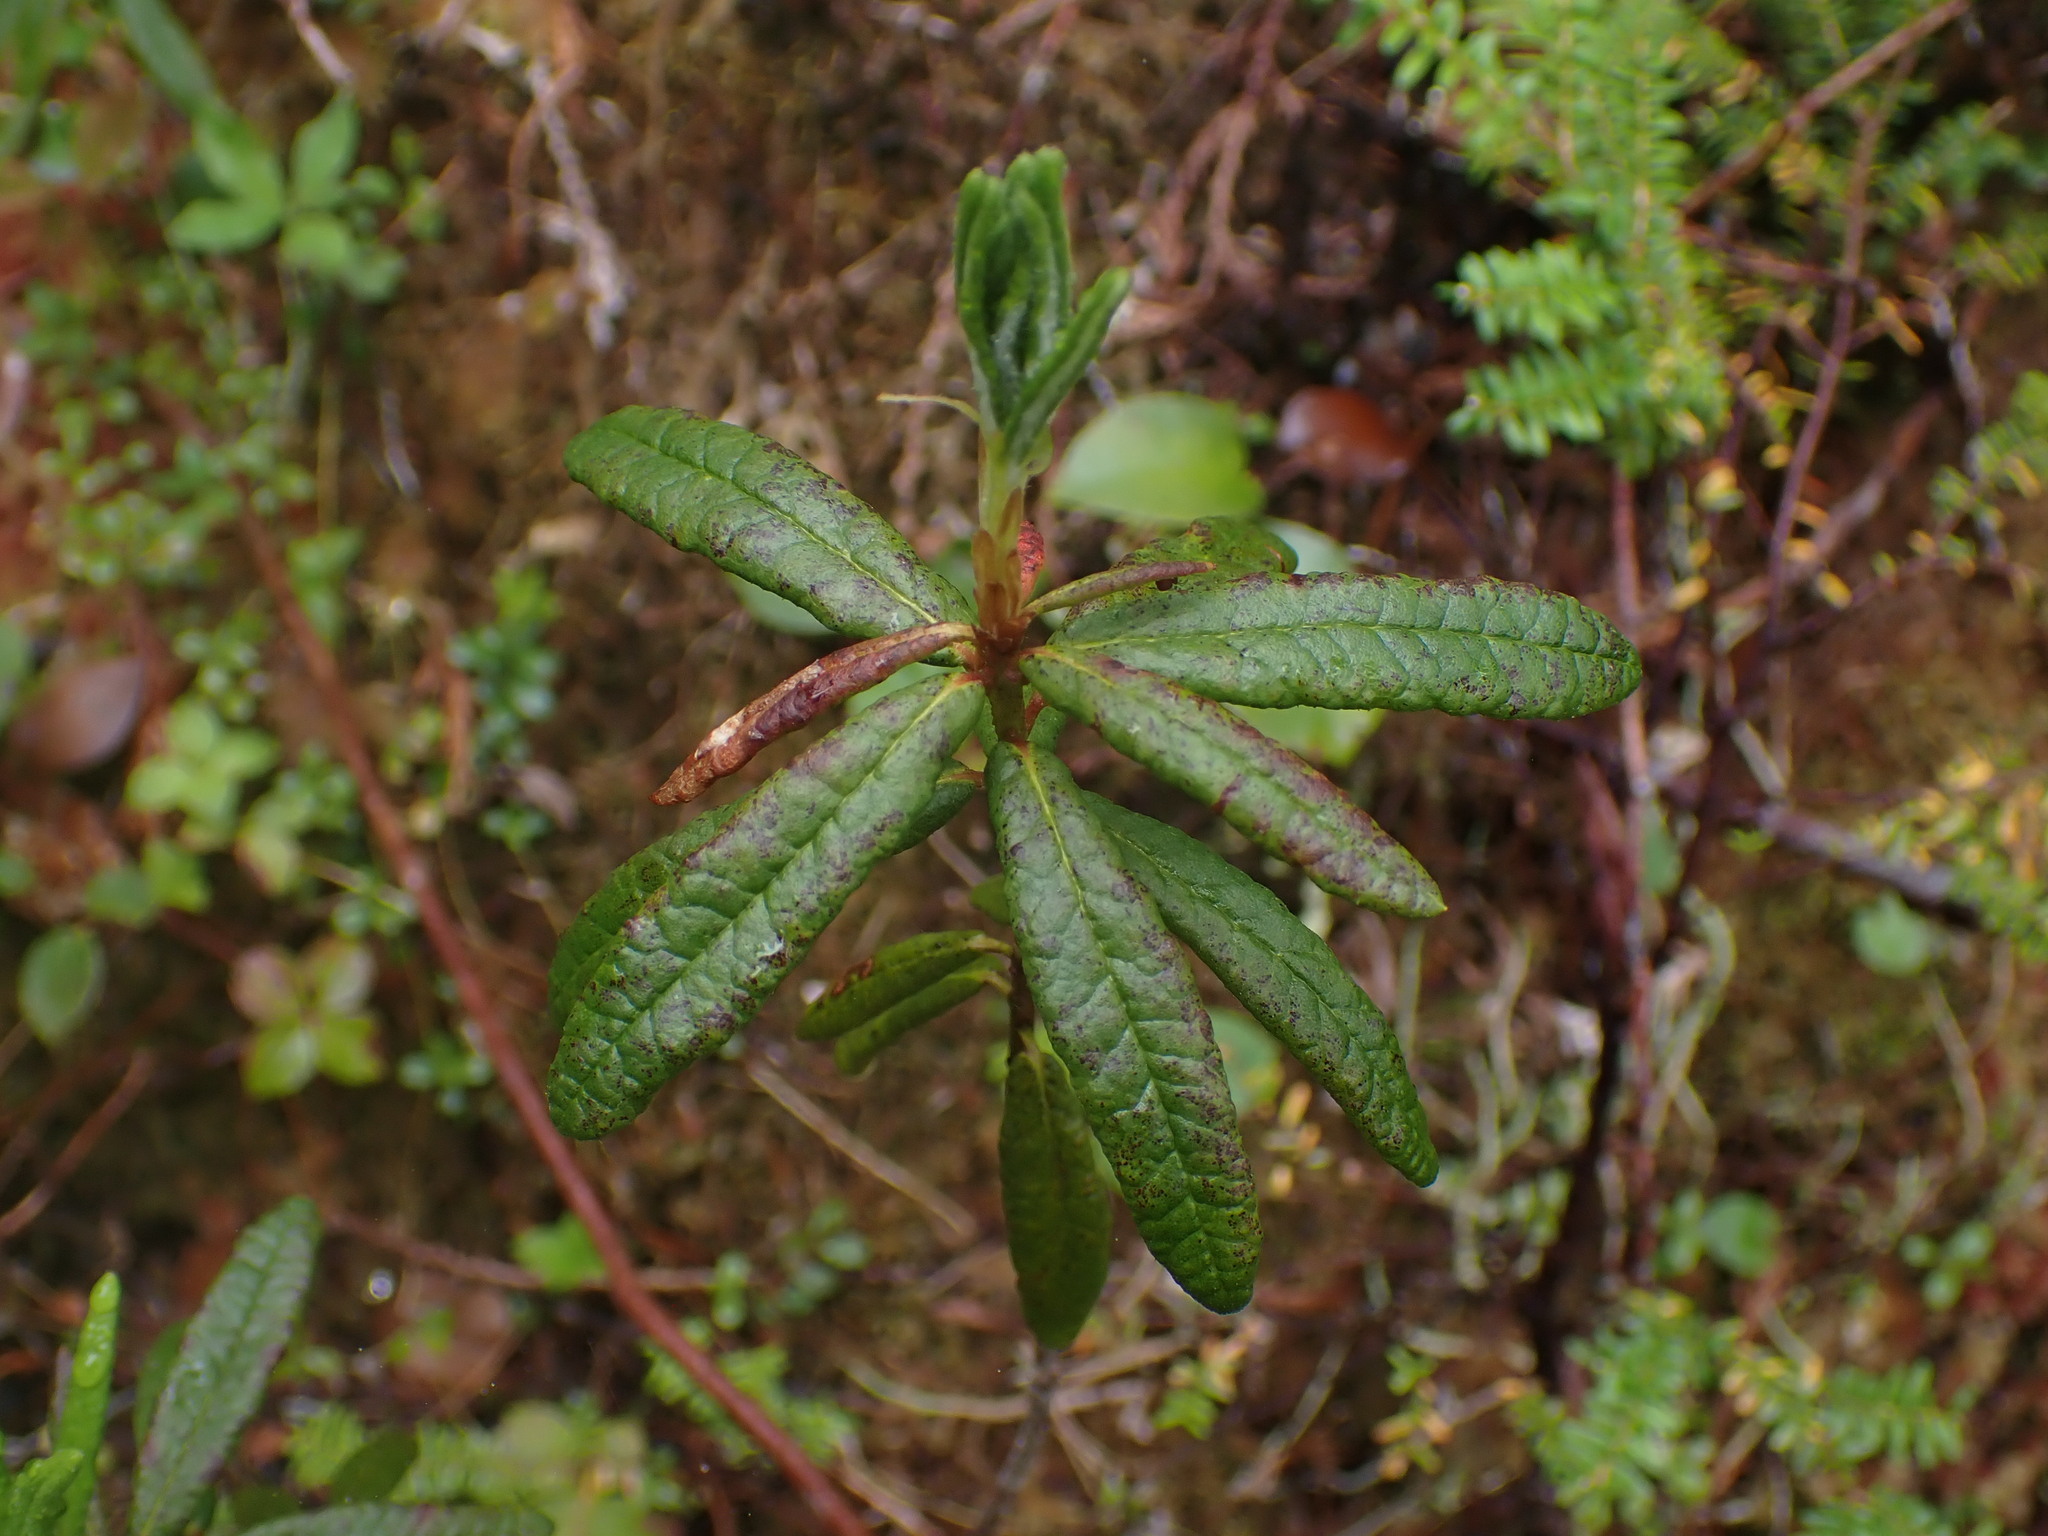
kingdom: Plantae
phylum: Tracheophyta
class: Magnoliopsida
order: Ericales
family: Ericaceae
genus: Rhododendron
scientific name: Rhododendron groenlandicum
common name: Bog labrador tea
